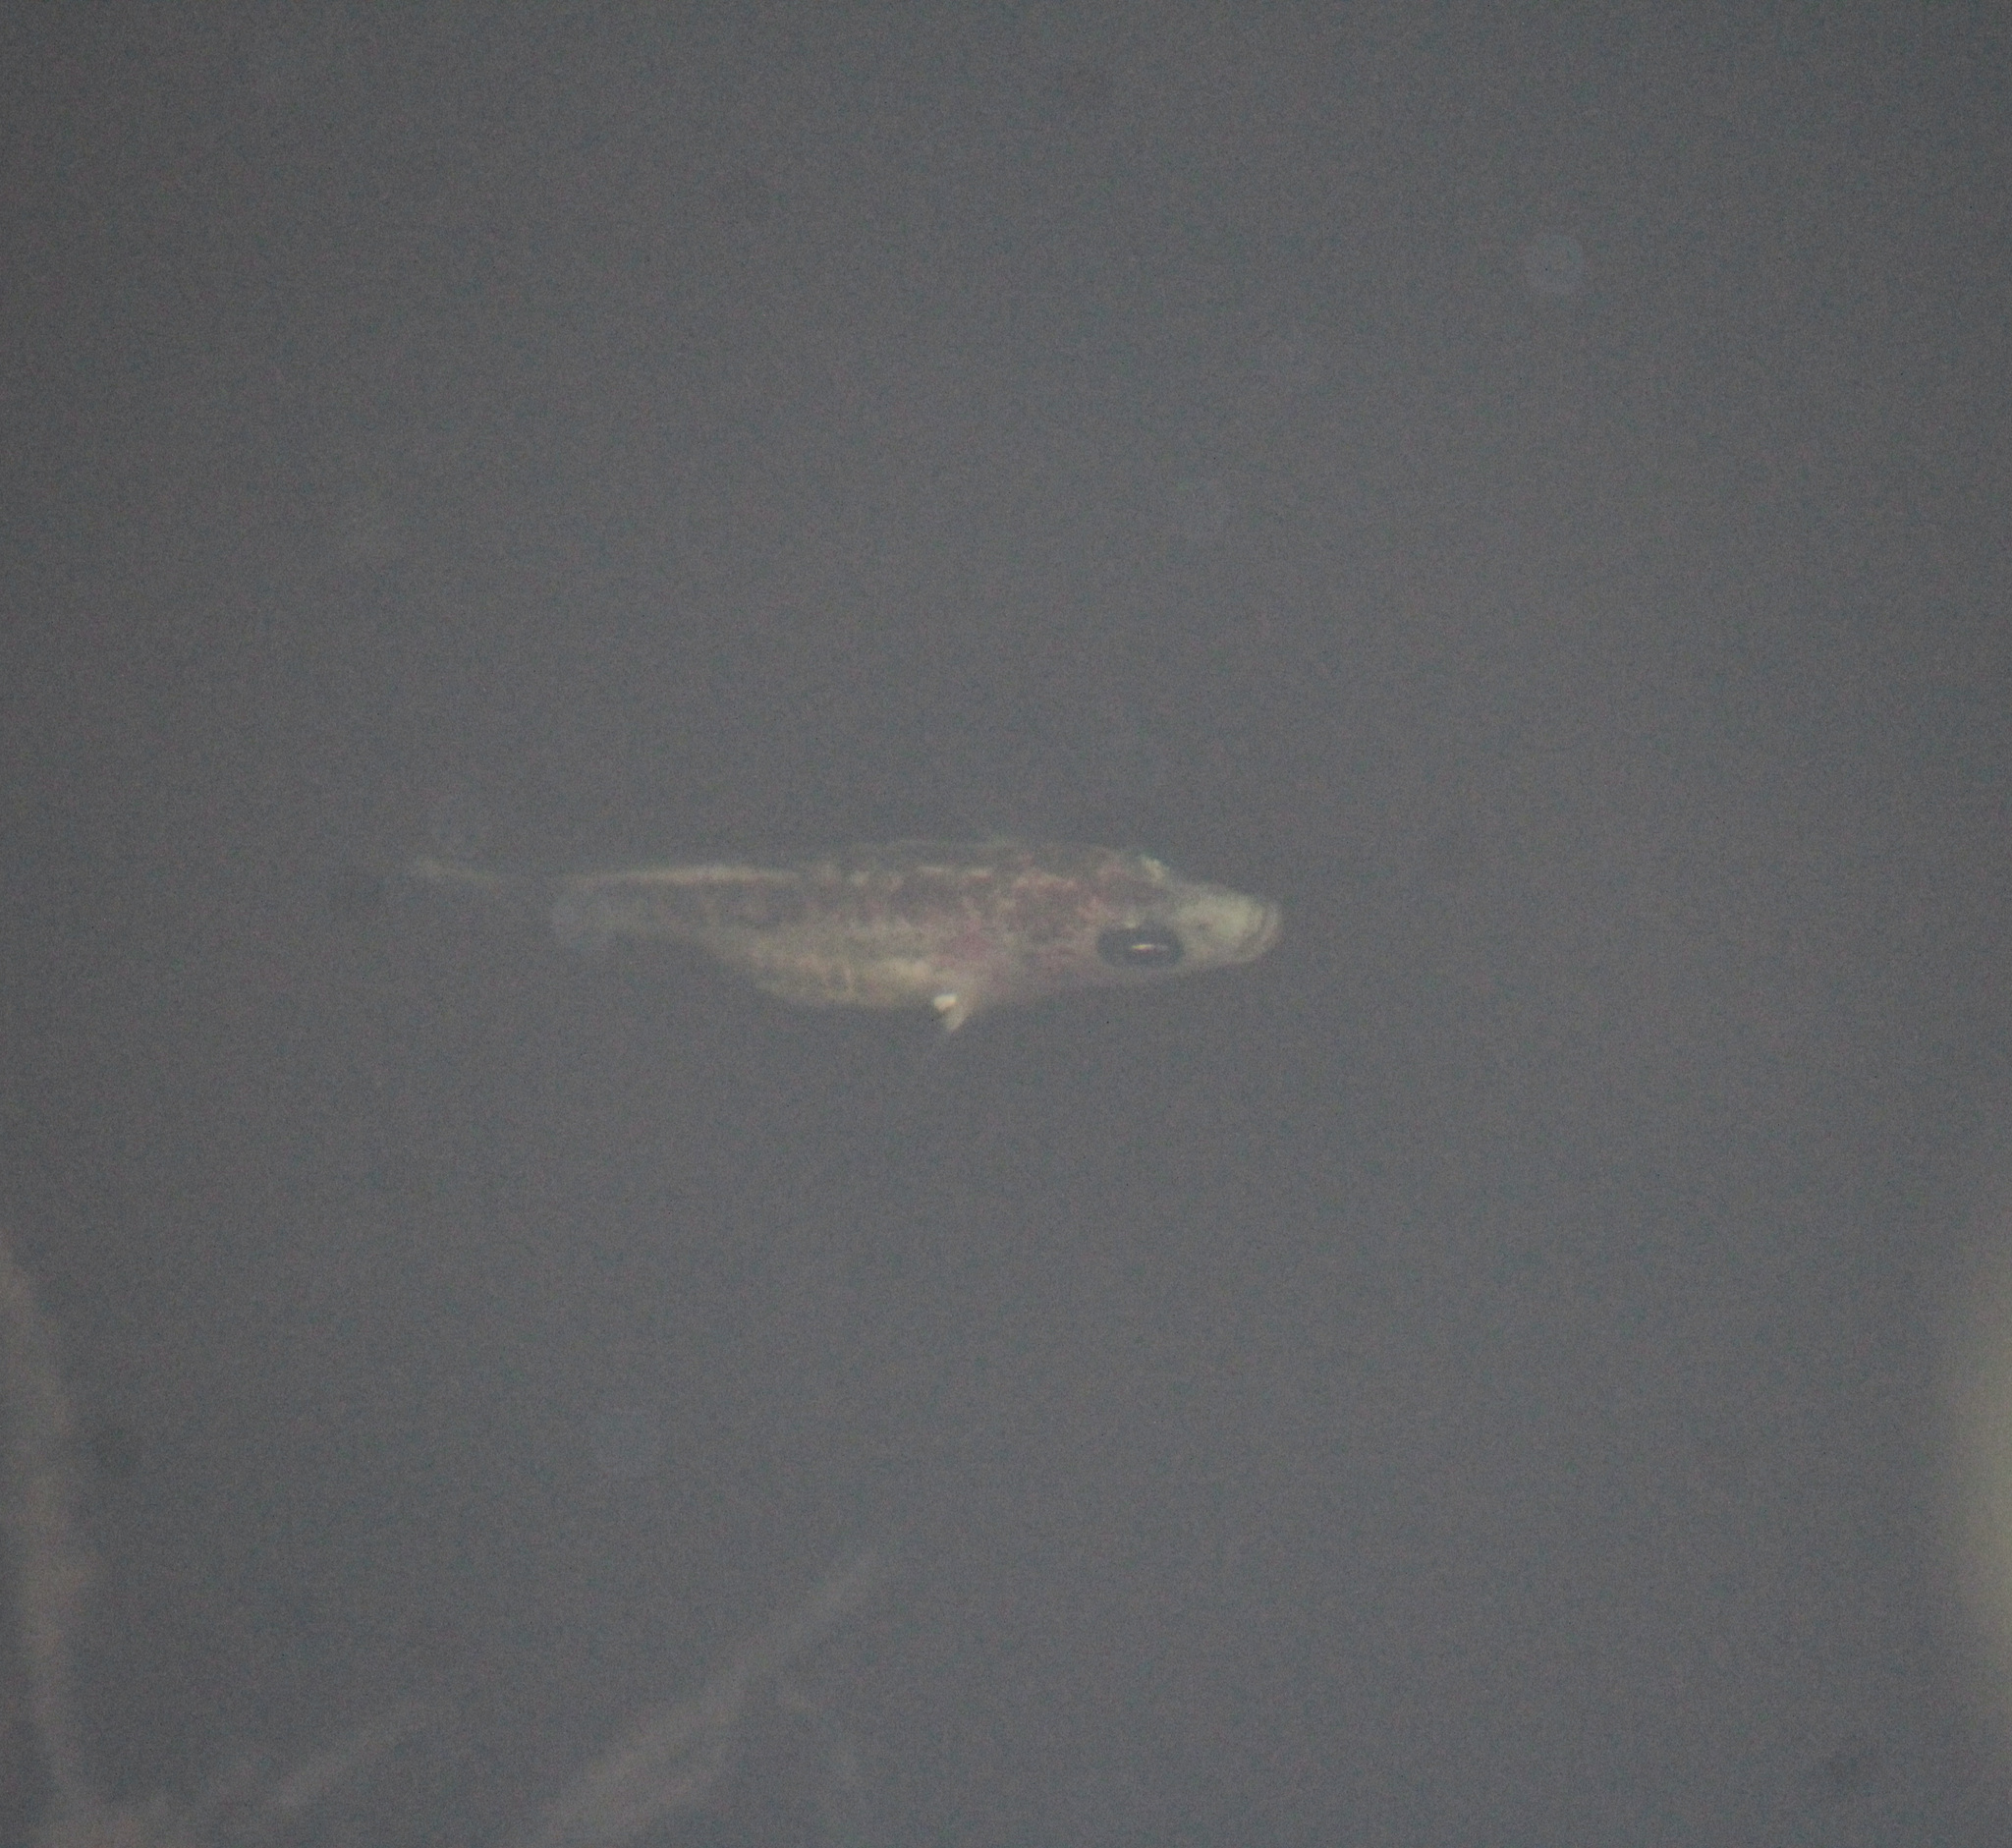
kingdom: Animalia
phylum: Chordata
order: Gasterosteiformes
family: Gasterosteidae
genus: Gasterosteus
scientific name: Gasterosteus aculeatus
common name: Three-spined stickleback
